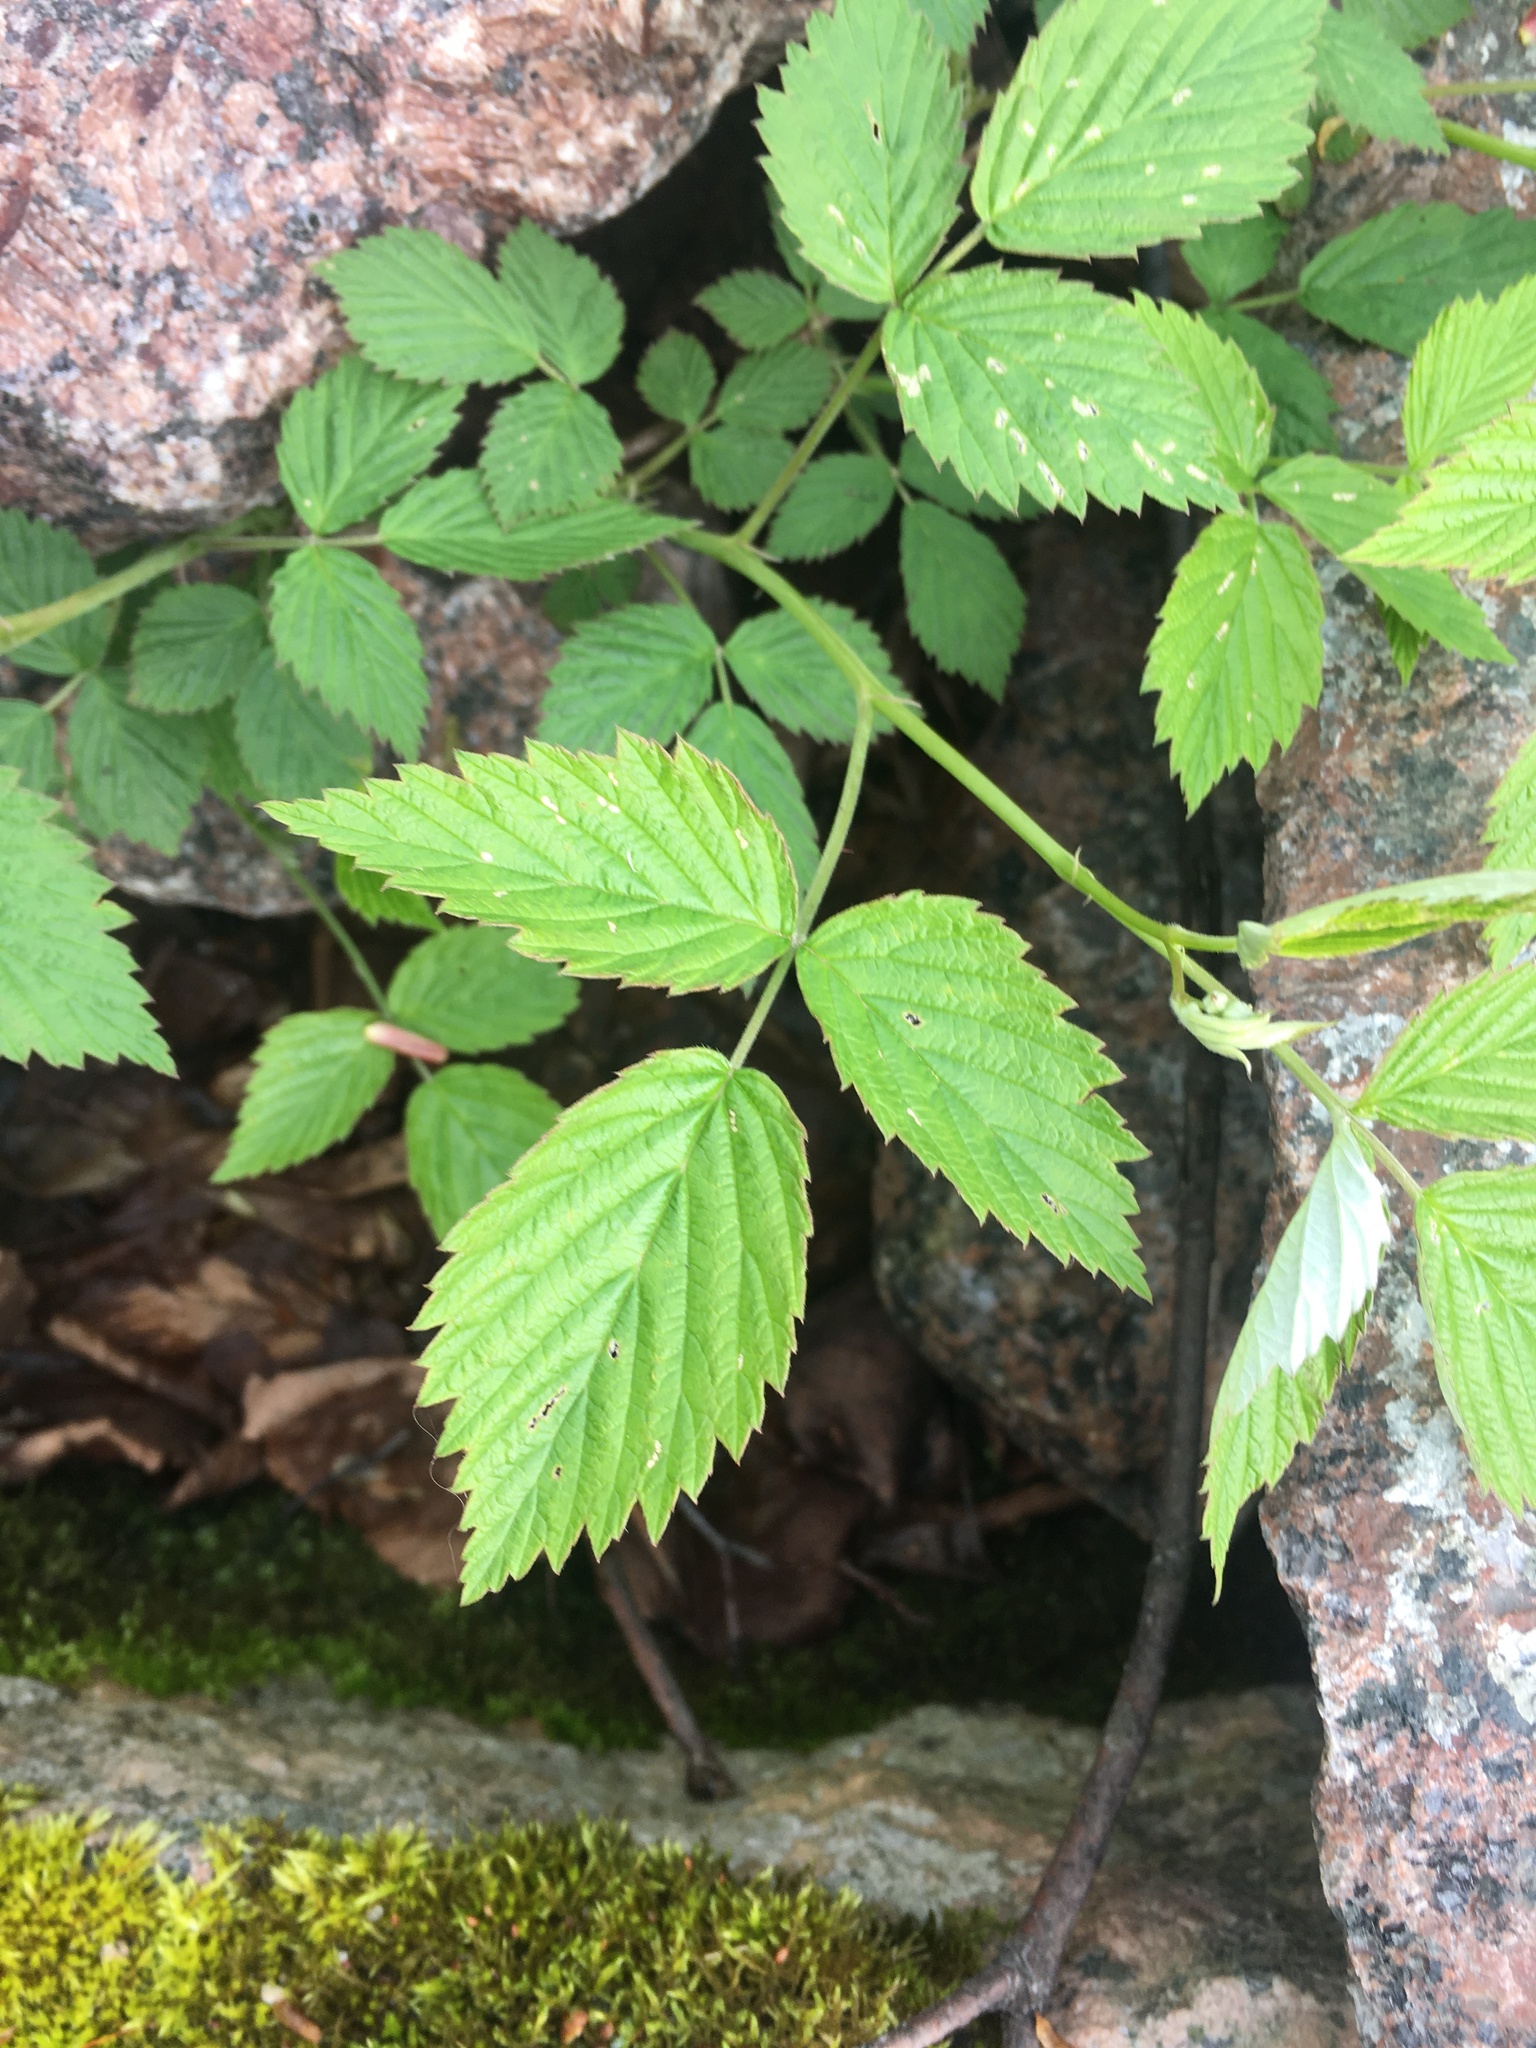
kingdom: Plantae
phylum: Tracheophyta
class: Magnoliopsida
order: Rosales
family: Rosaceae
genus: Rubus
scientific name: Rubus idaeus
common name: Raspberry
